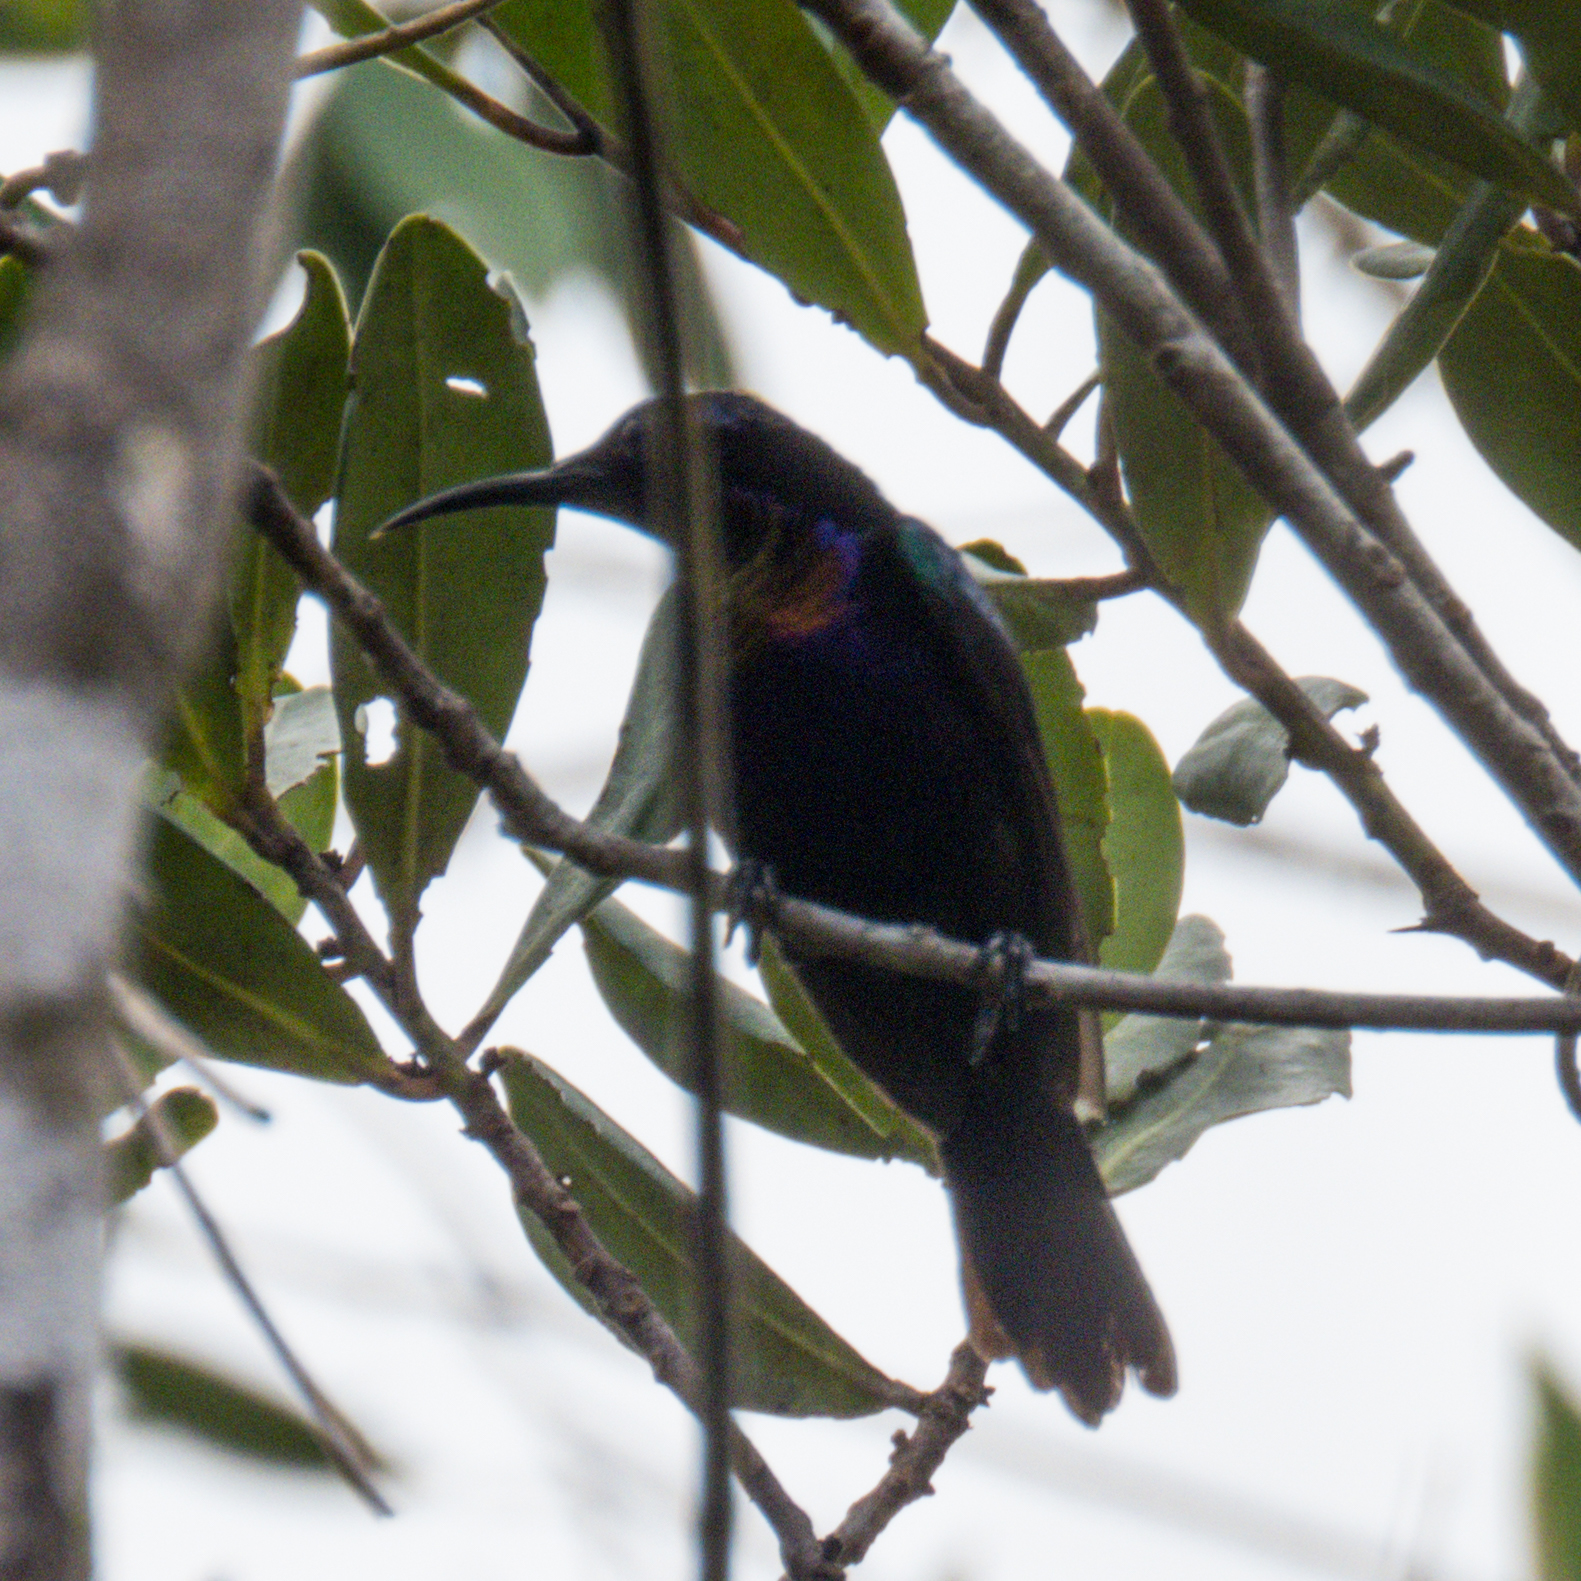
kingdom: Animalia
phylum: Chordata
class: Aves
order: Passeriformes
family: Nectariniidae
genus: Leptocoma
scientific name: Leptocoma calcostetha
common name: Copper-throated sunbird
